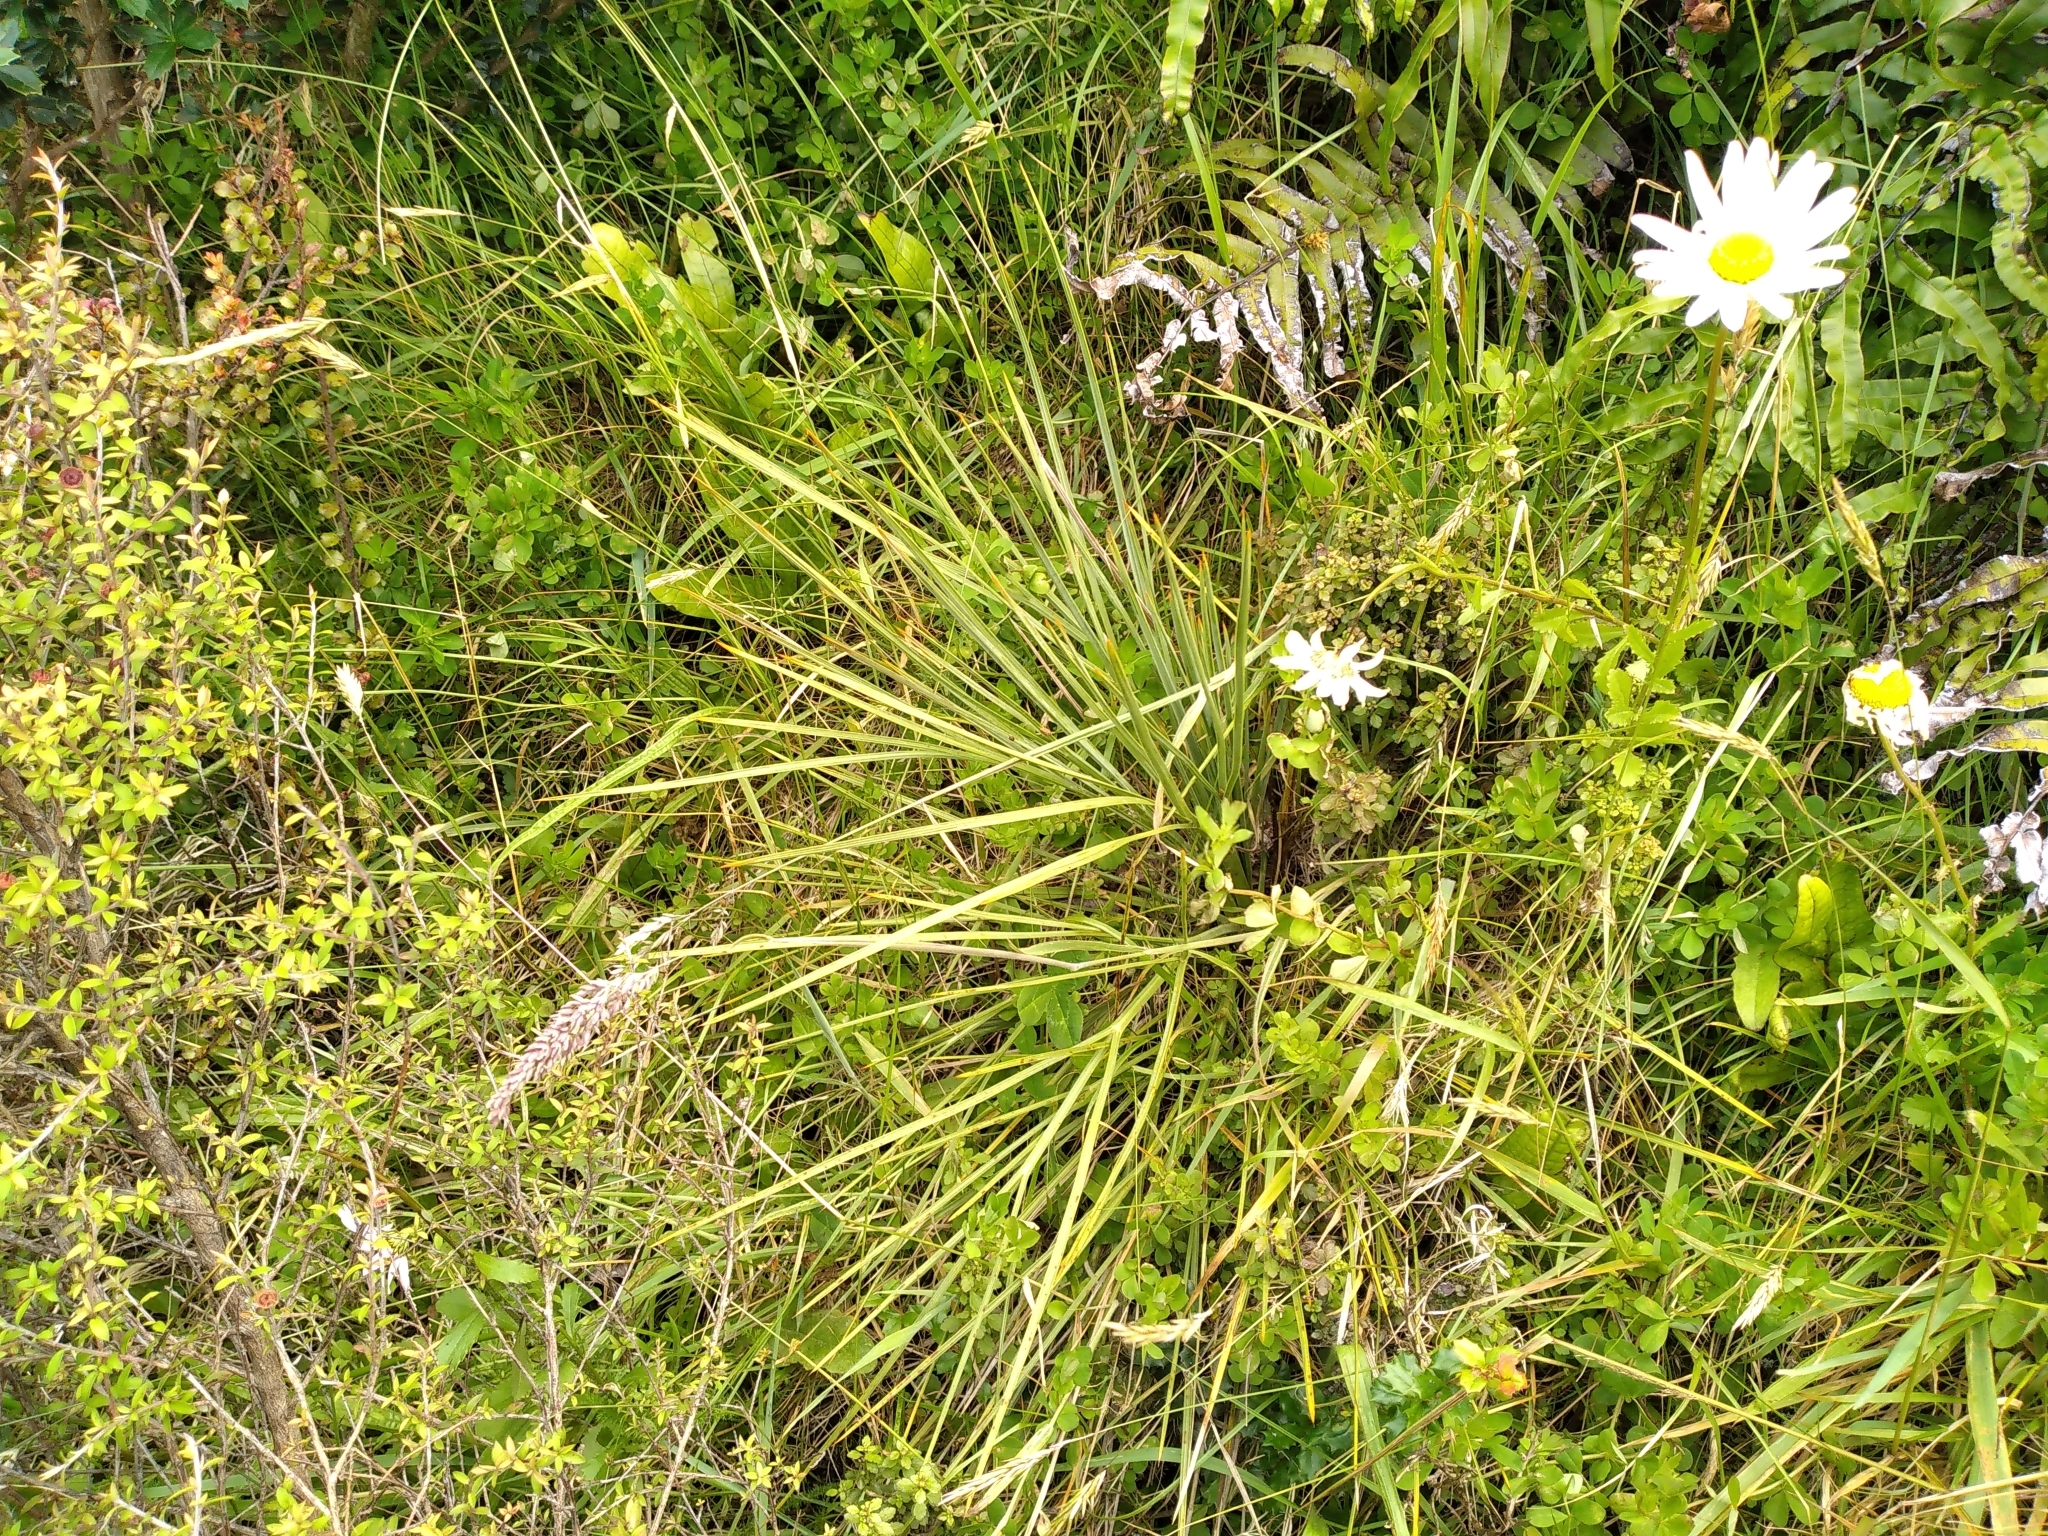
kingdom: Plantae
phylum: Tracheophyta
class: Magnoliopsida
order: Apiales
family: Apiaceae
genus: Aciphylla
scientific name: Aciphylla squarrosa
